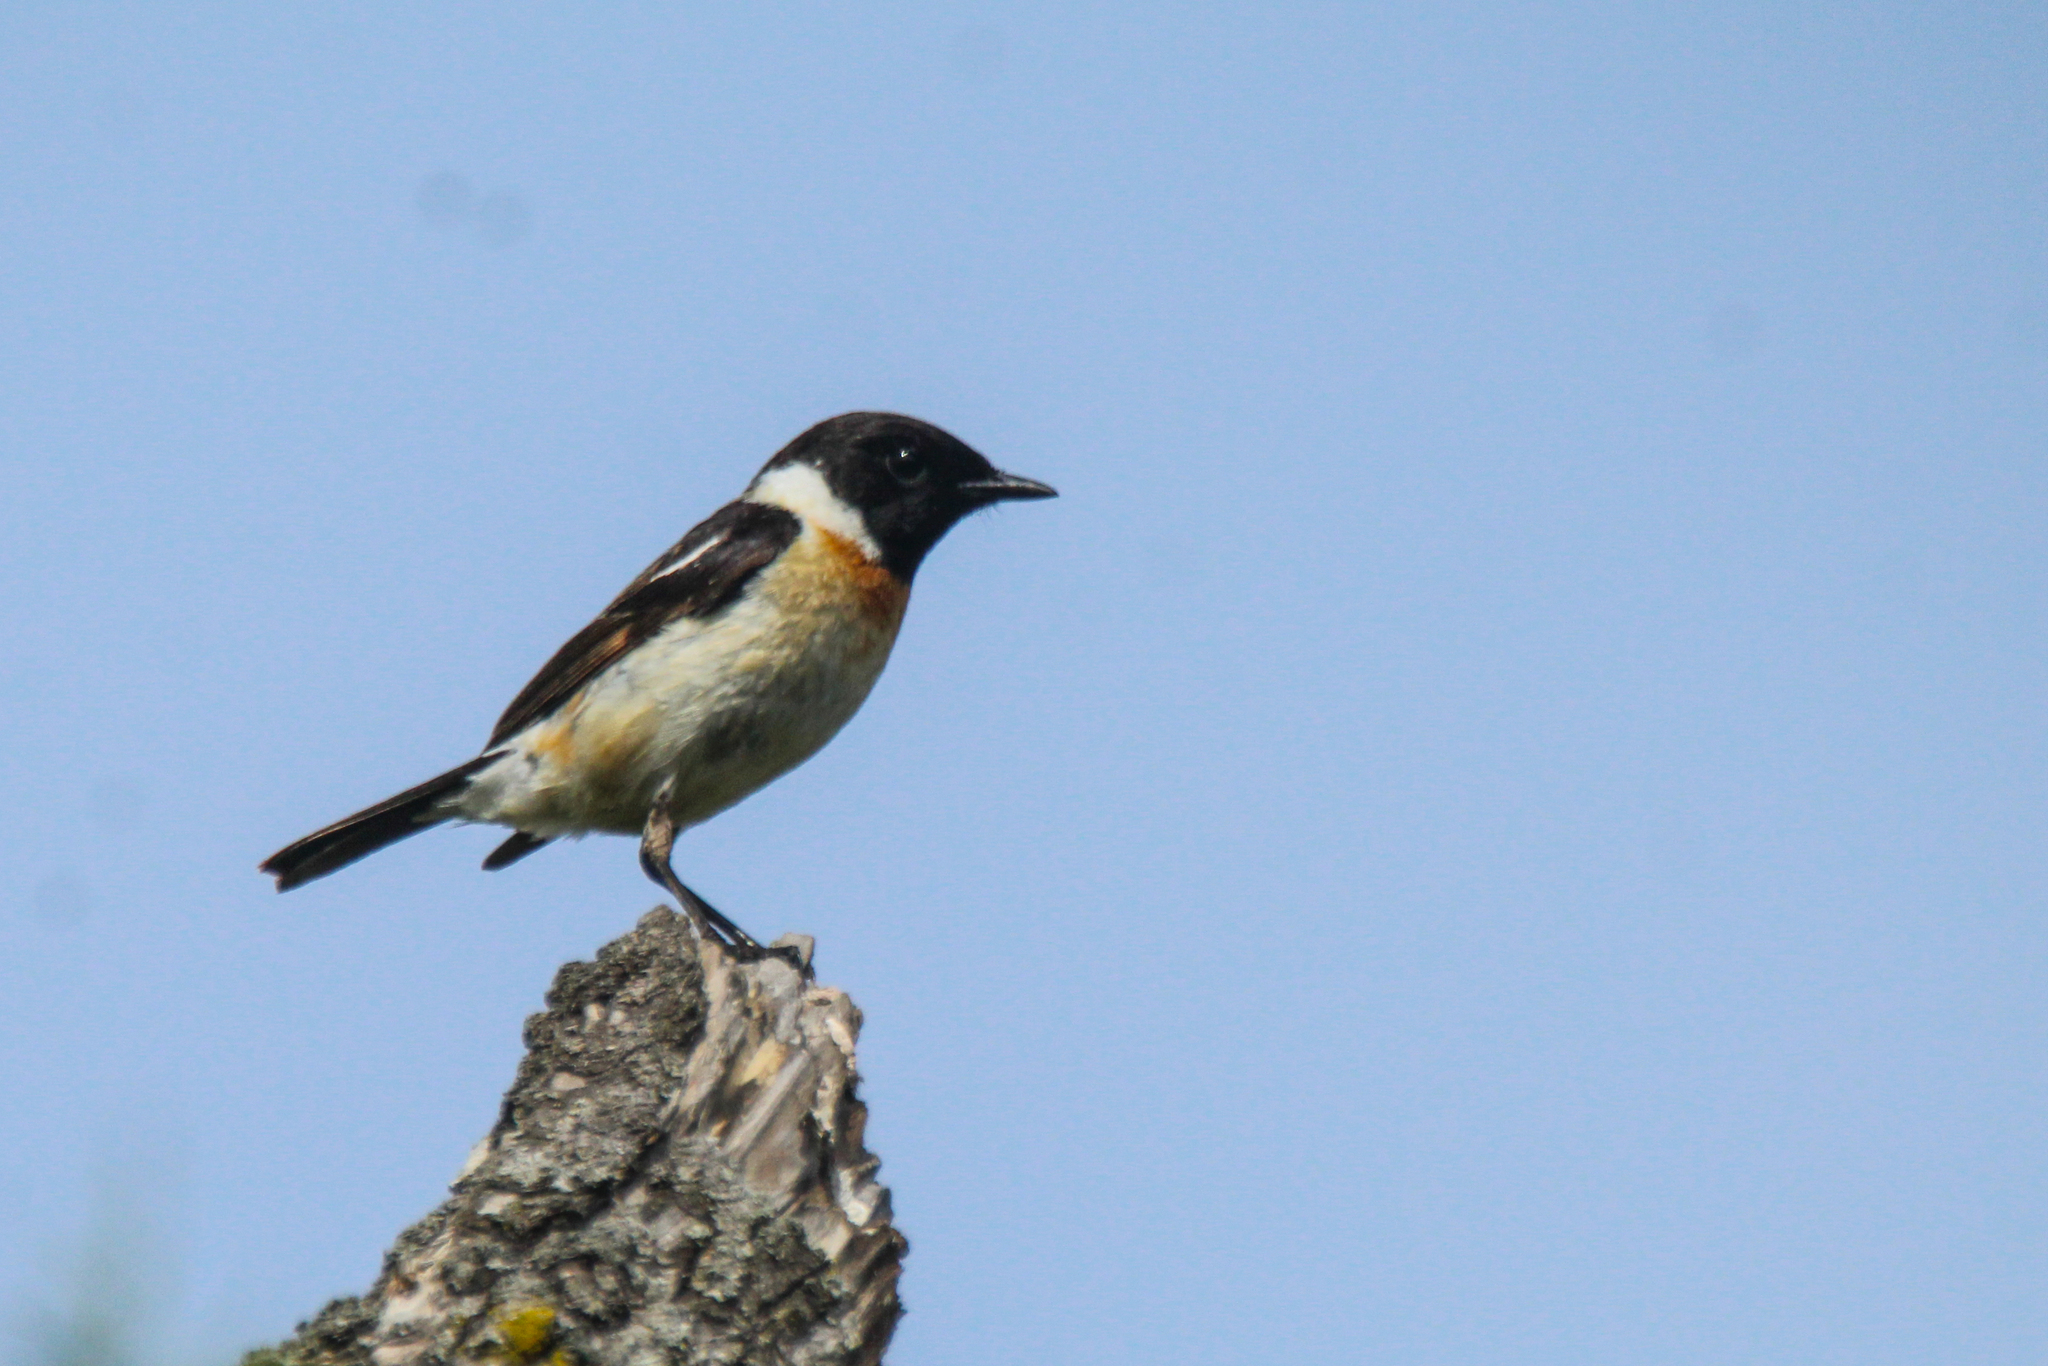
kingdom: Animalia
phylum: Chordata
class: Aves
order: Passeriformes
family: Muscicapidae
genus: Saxicola
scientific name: Saxicola stejnegeri
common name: Stejneger's stonechat
